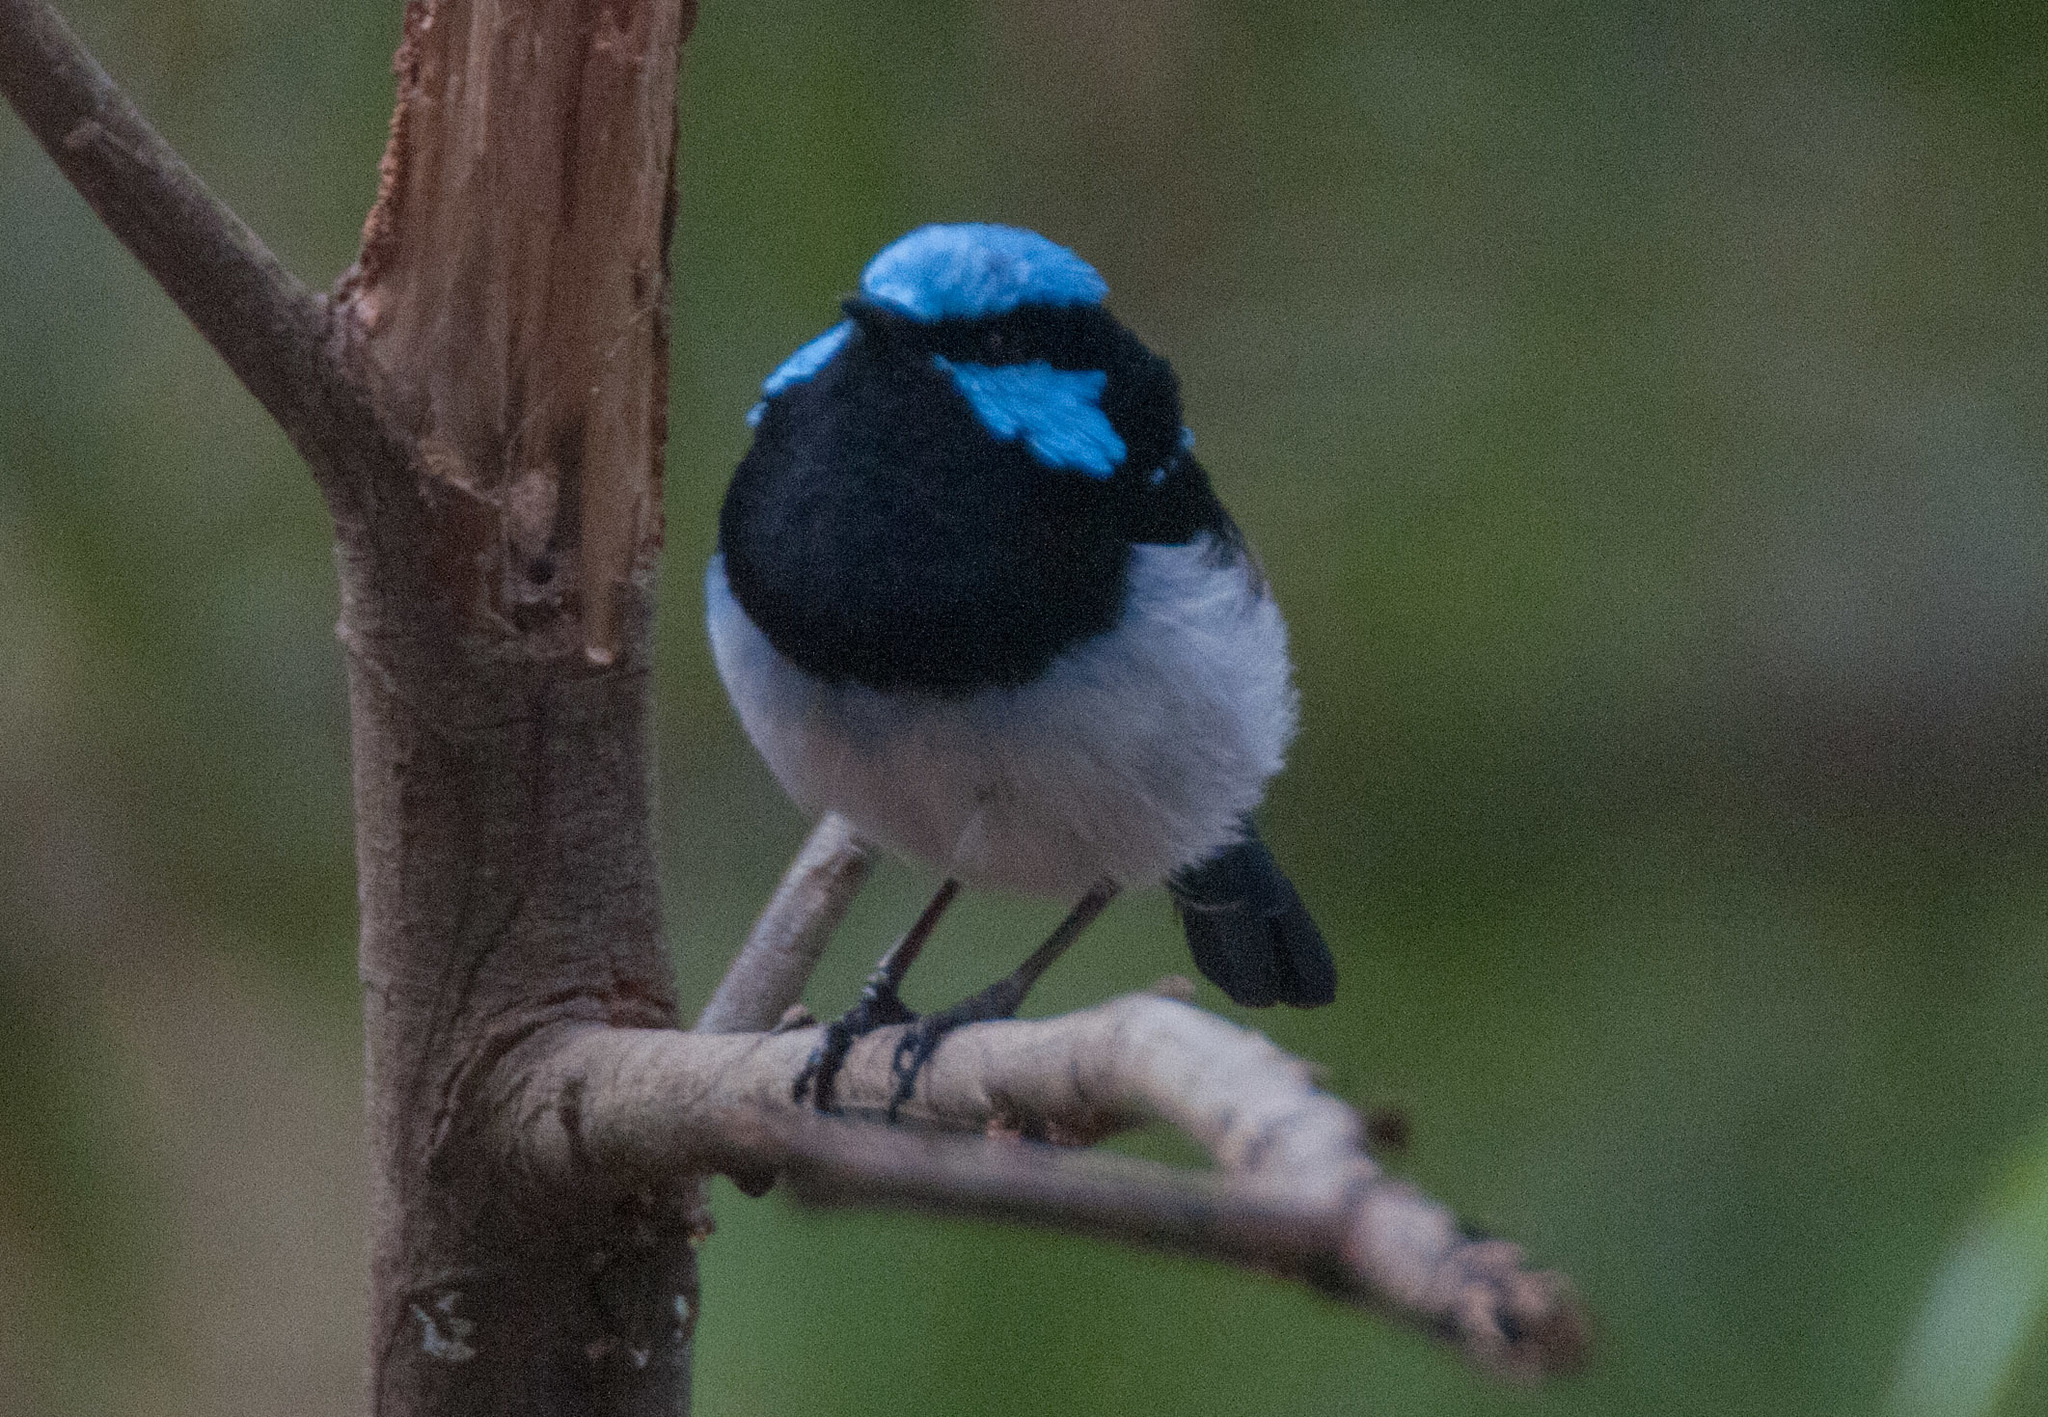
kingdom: Animalia
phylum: Chordata
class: Aves
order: Passeriformes
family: Maluridae
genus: Malurus
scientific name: Malurus cyaneus
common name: Superb fairywren
